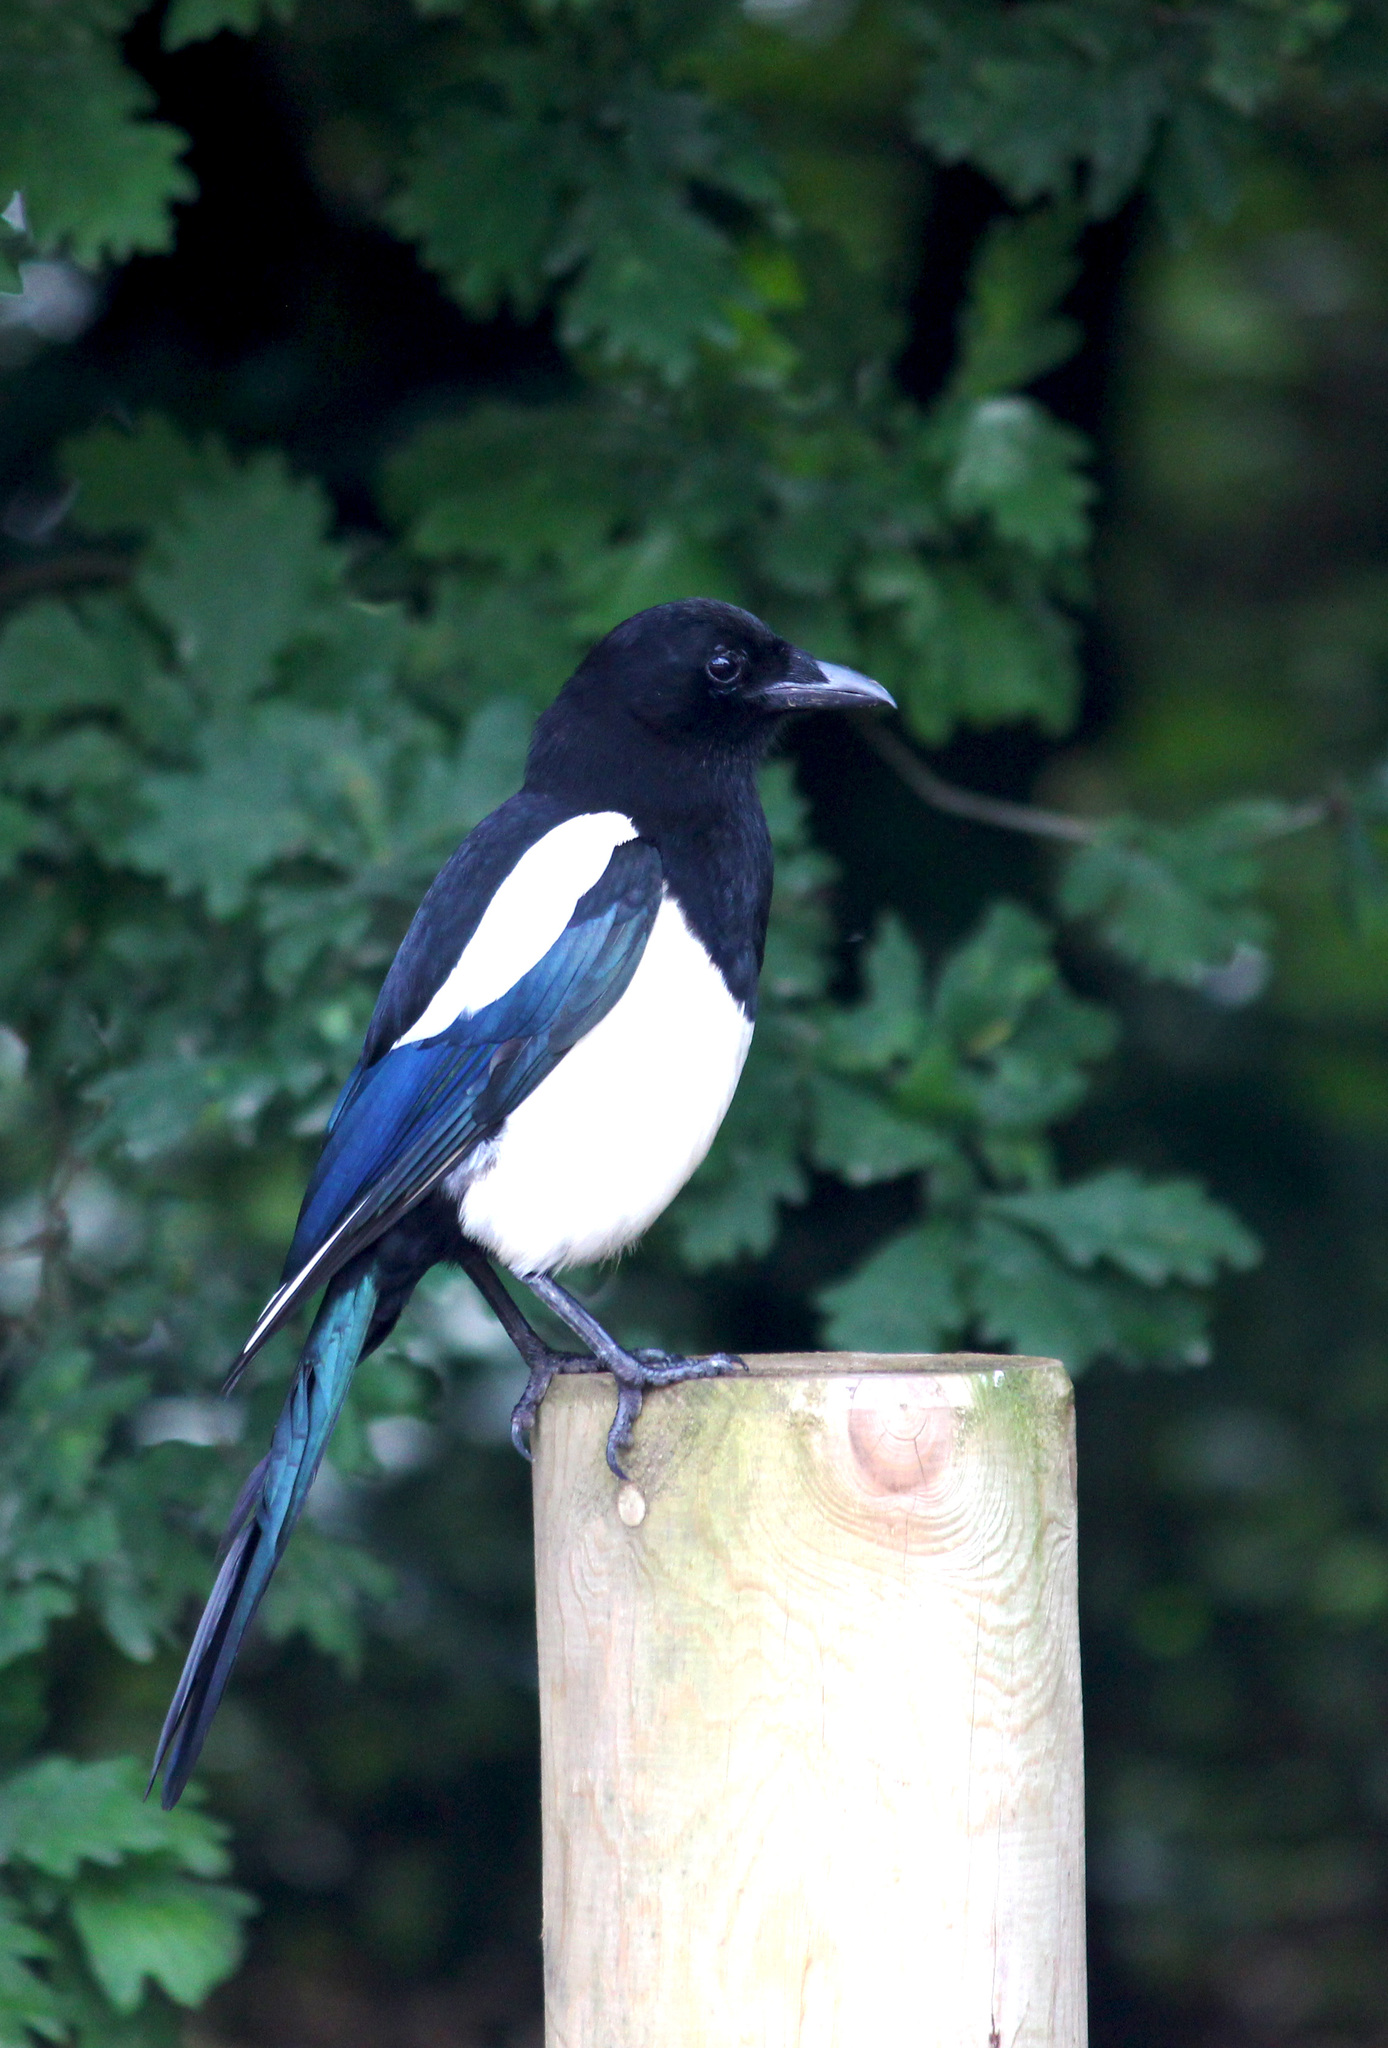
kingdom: Animalia
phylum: Chordata
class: Aves
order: Passeriformes
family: Corvidae
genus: Pica
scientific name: Pica pica
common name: Eurasian magpie
